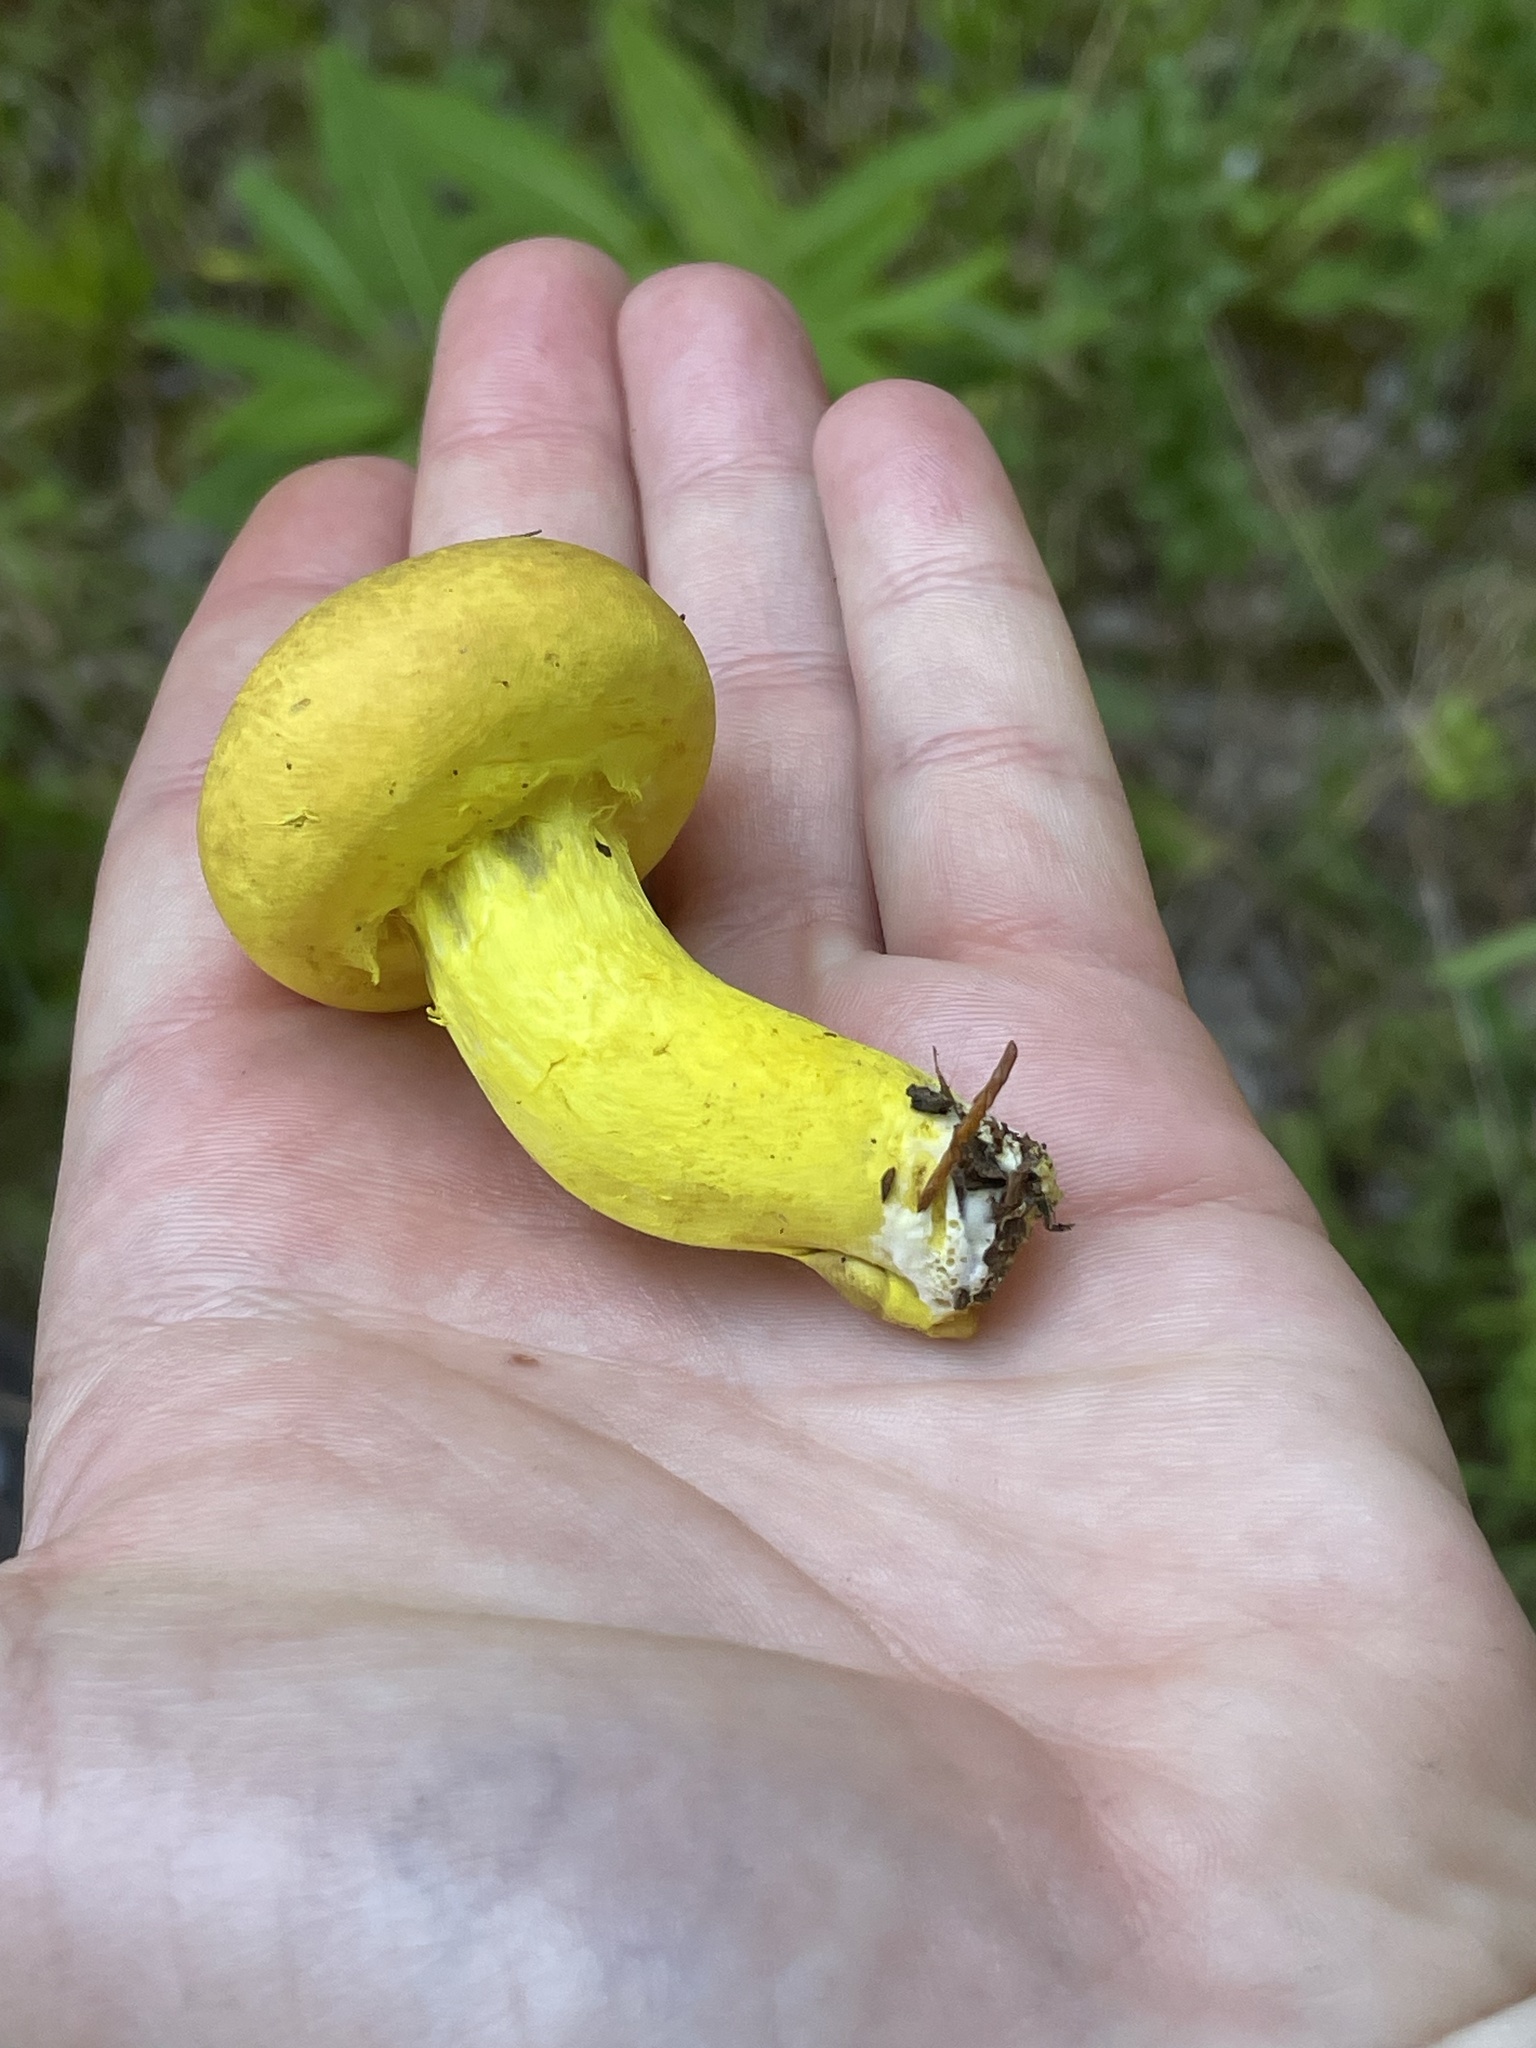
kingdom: Fungi
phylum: Basidiomycota
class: Agaricomycetes
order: Boletales
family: Boletaceae
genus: Pulveroboletus
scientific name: Pulveroboletus ravenelii
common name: Powdery sulfur bolete
